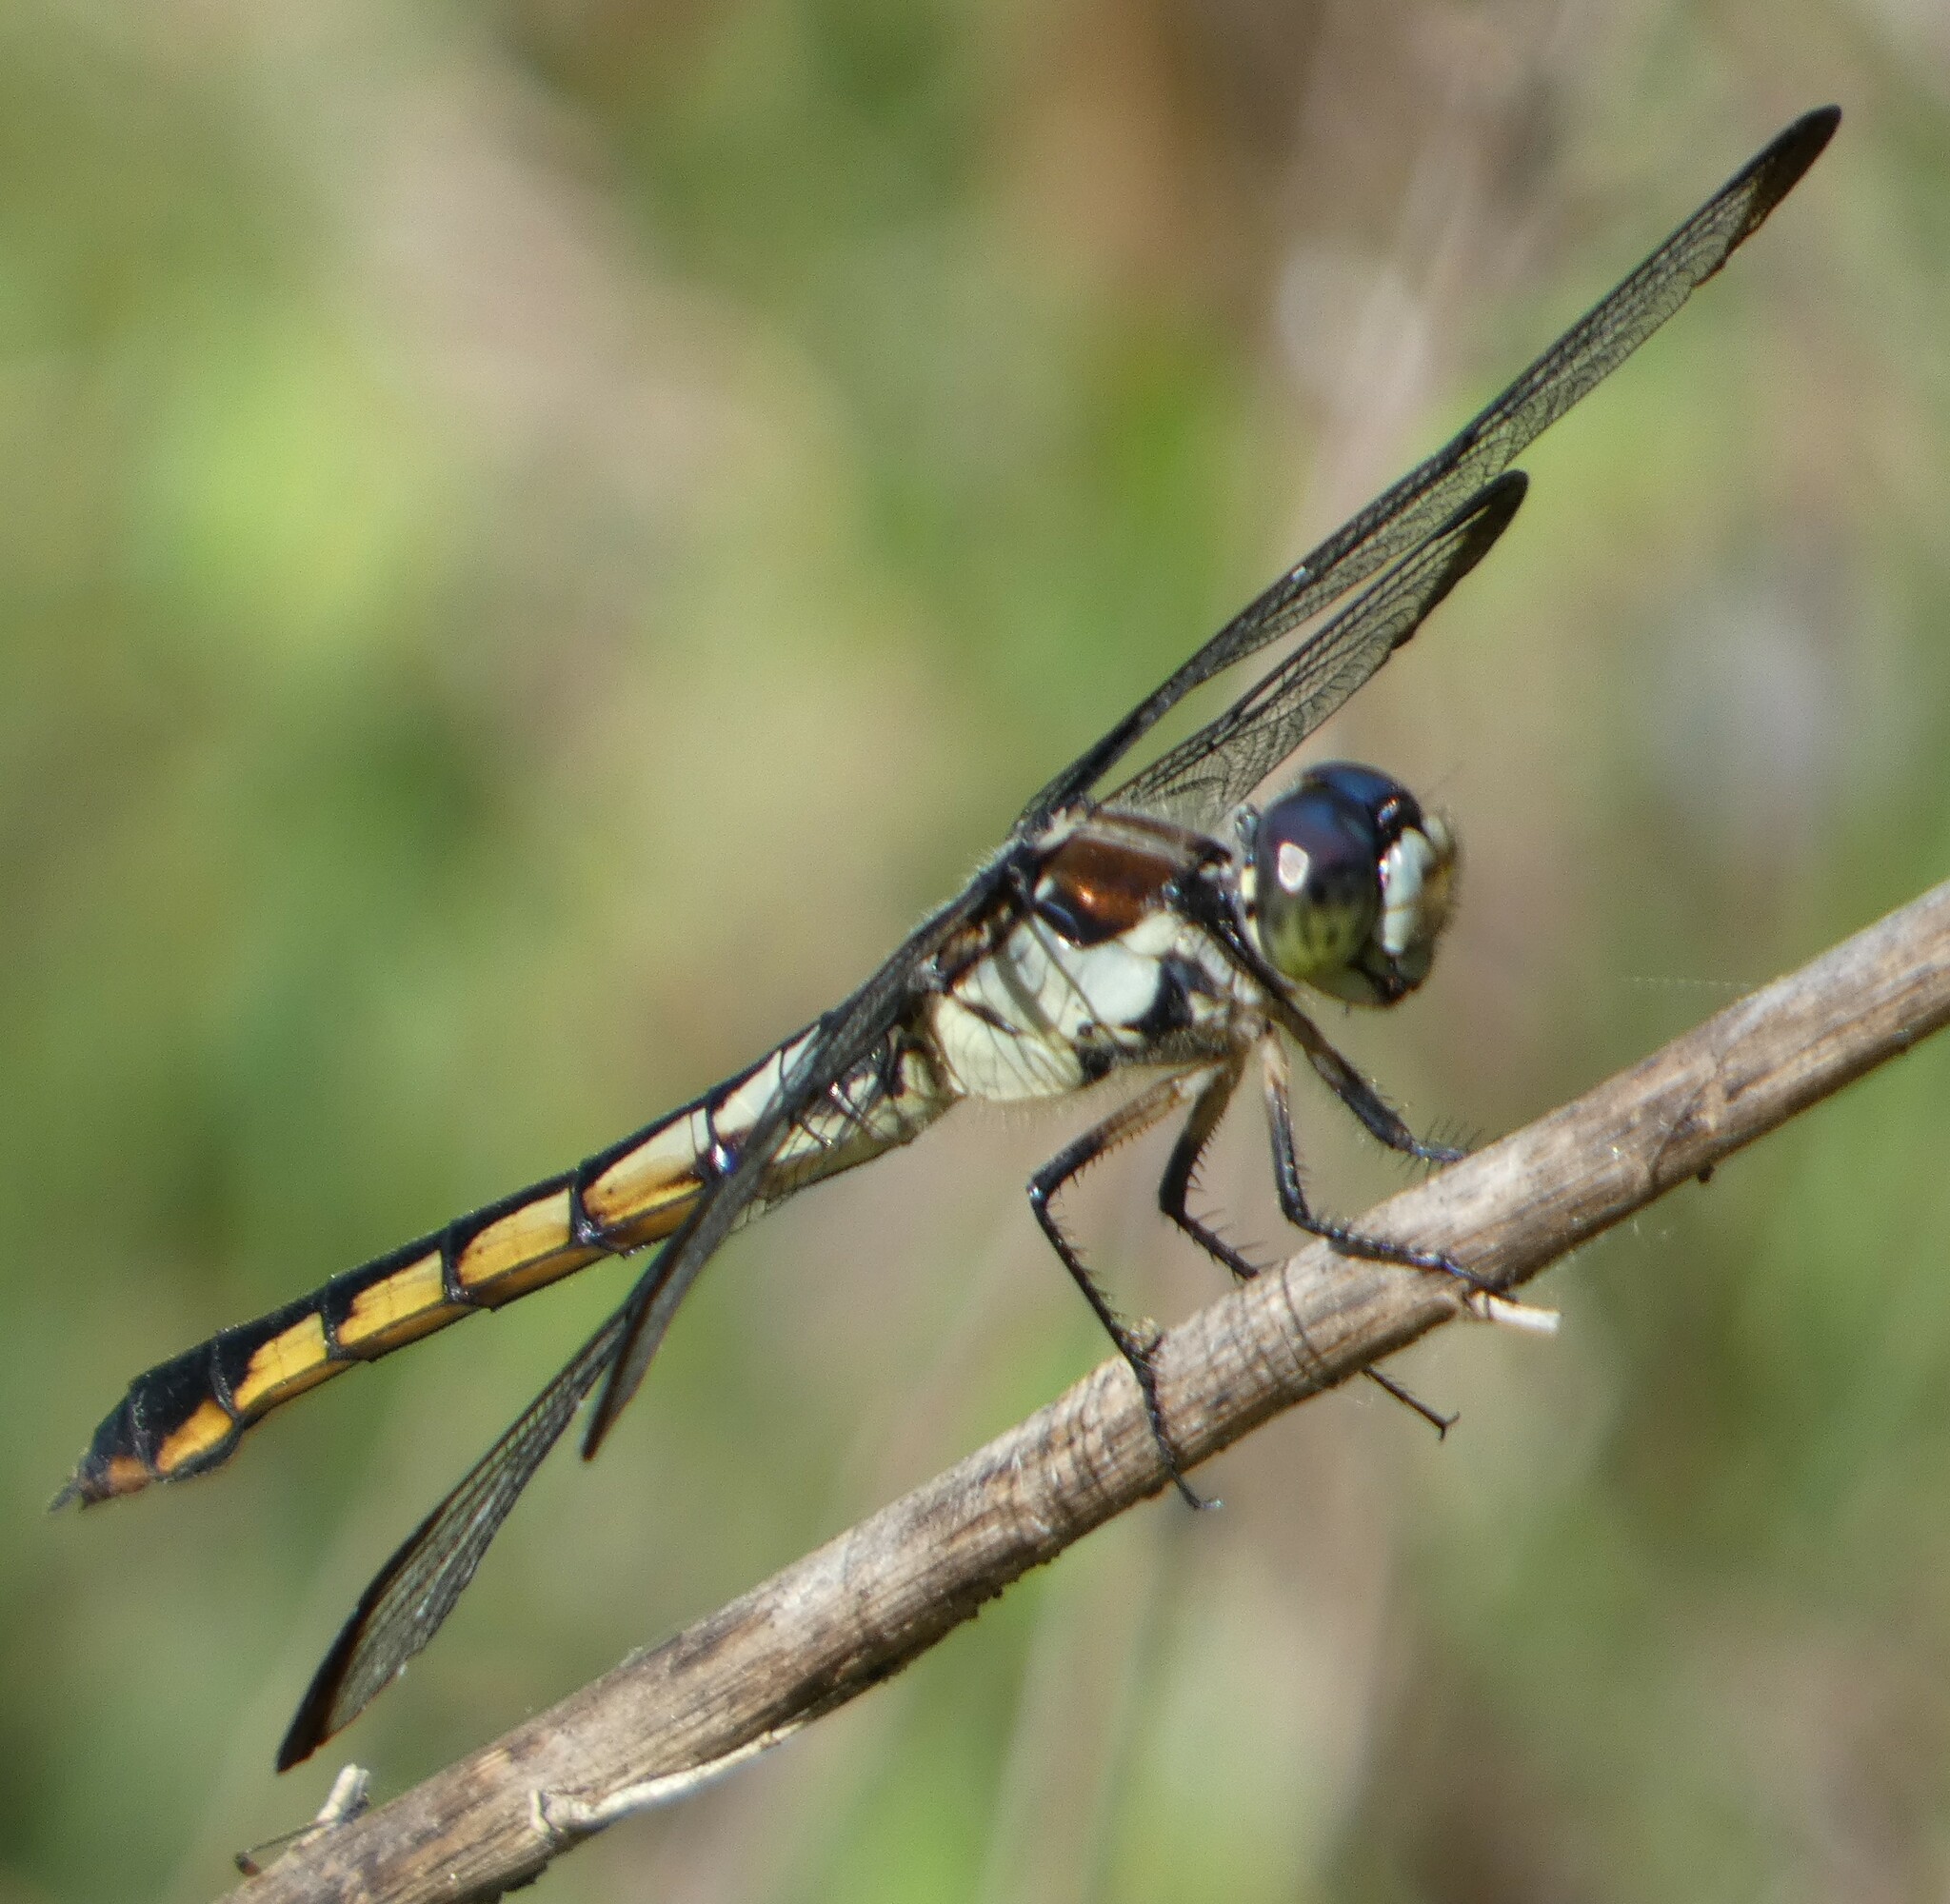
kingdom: Animalia
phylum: Arthropoda
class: Insecta
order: Odonata
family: Libellulidae
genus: Libellula
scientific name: Libellula vibrans
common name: Great blue skimmer
